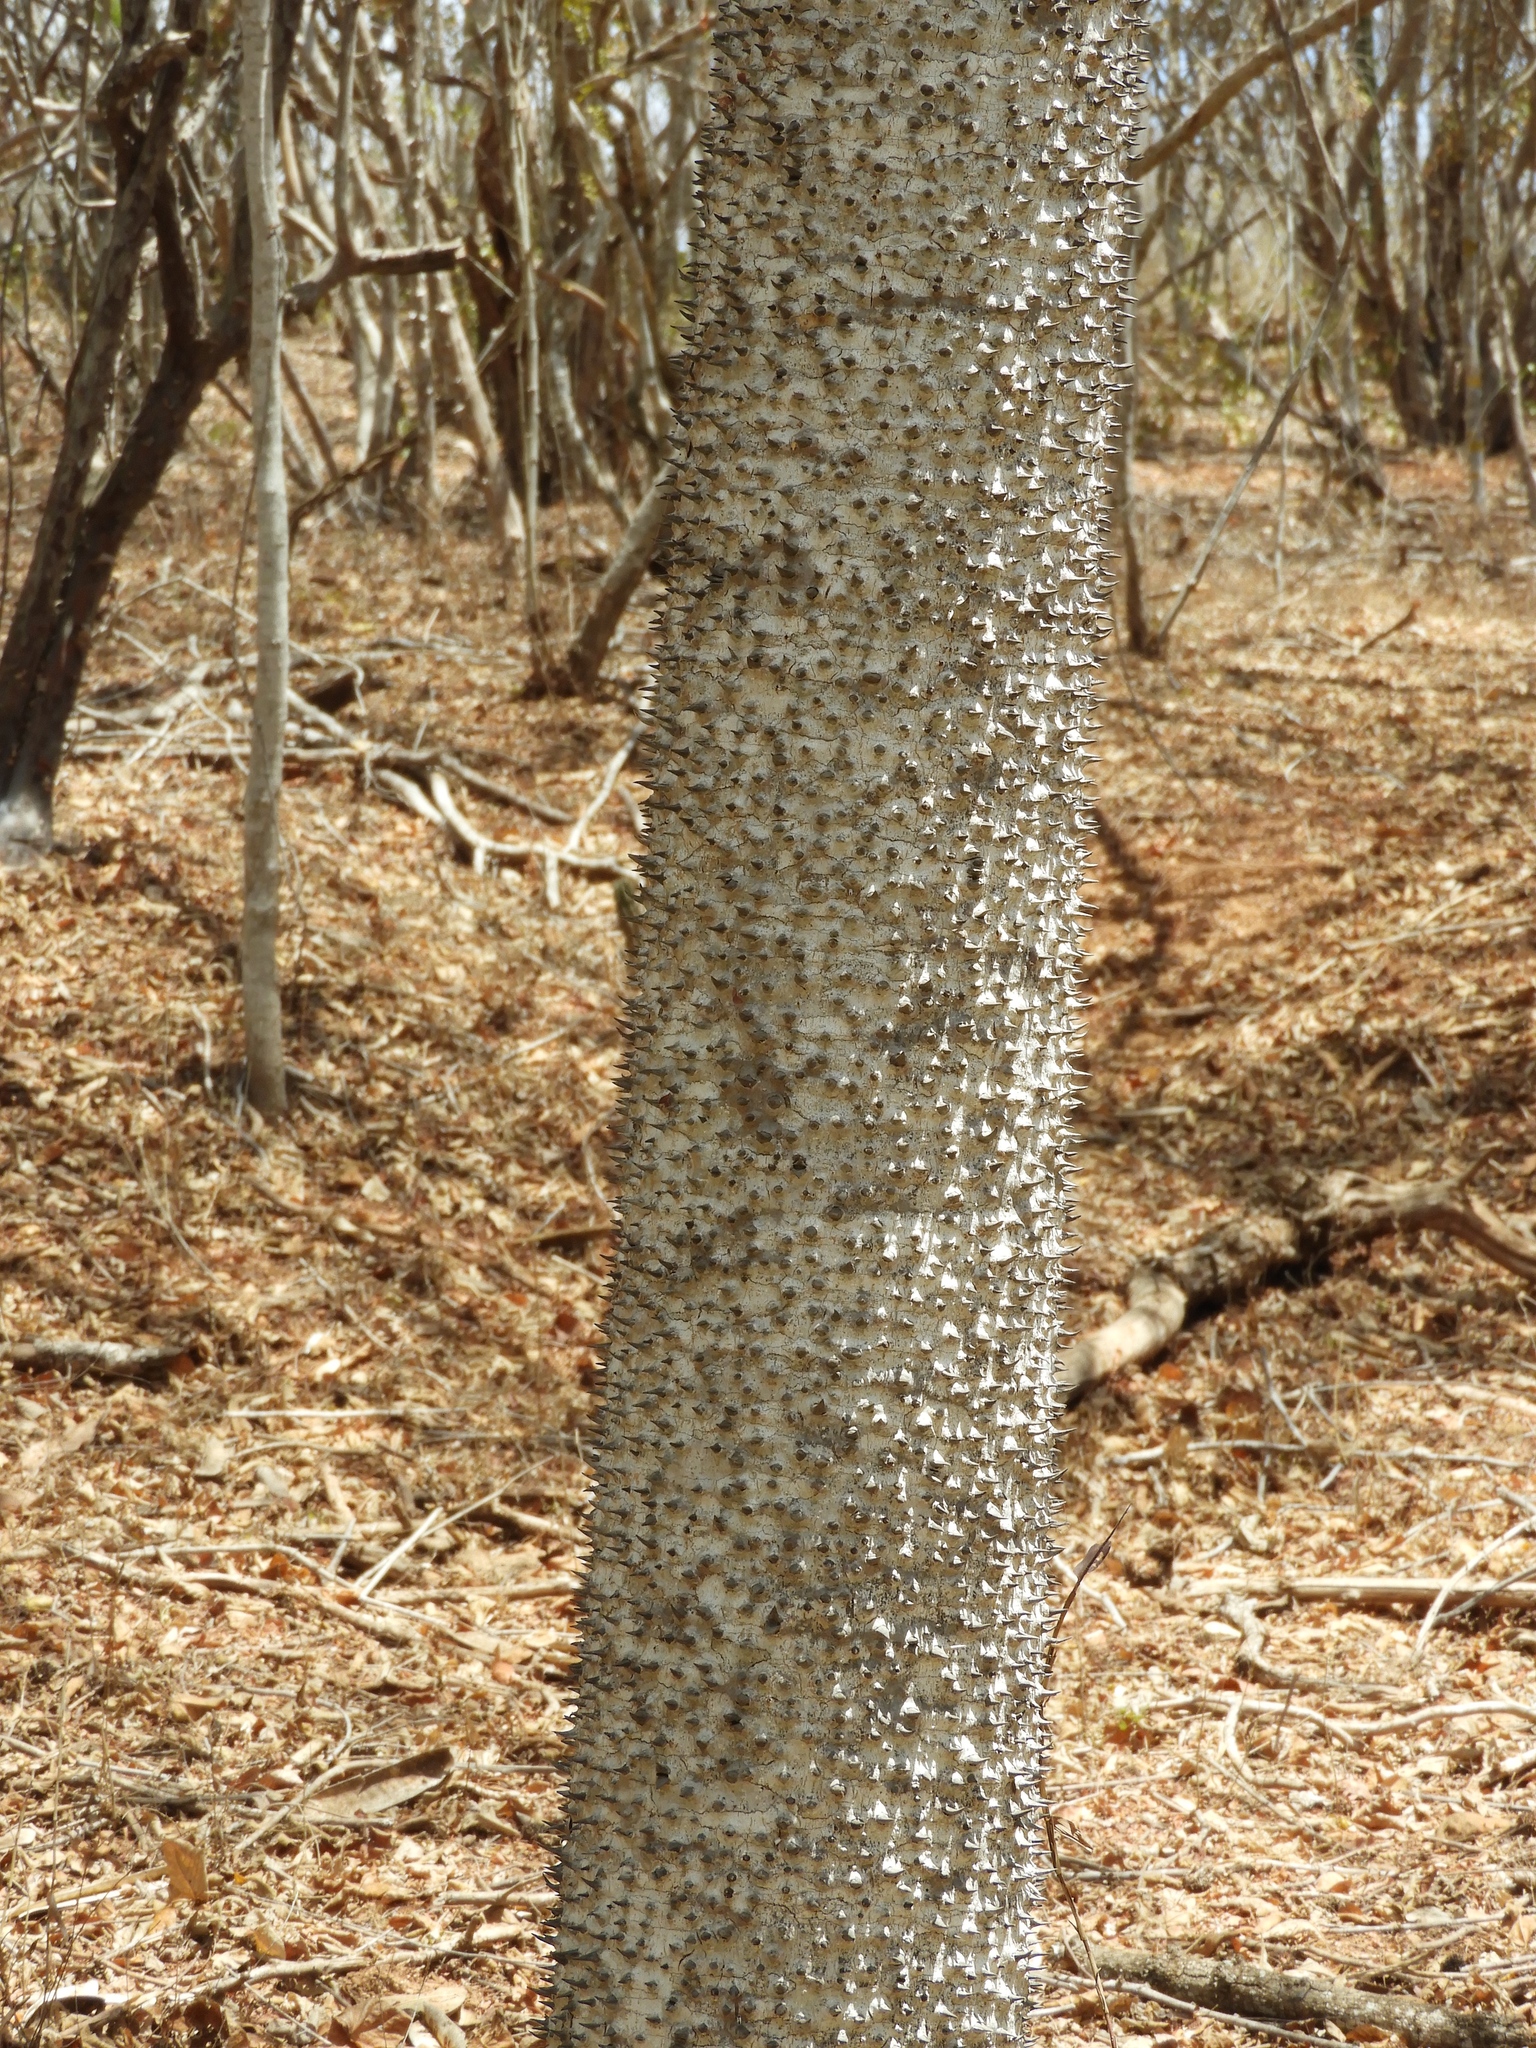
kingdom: Plantae
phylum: Tracheophyta
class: Magnoliopsida
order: Malpighiales
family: Euphorbiaceae
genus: Hura
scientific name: Hura polyandra
